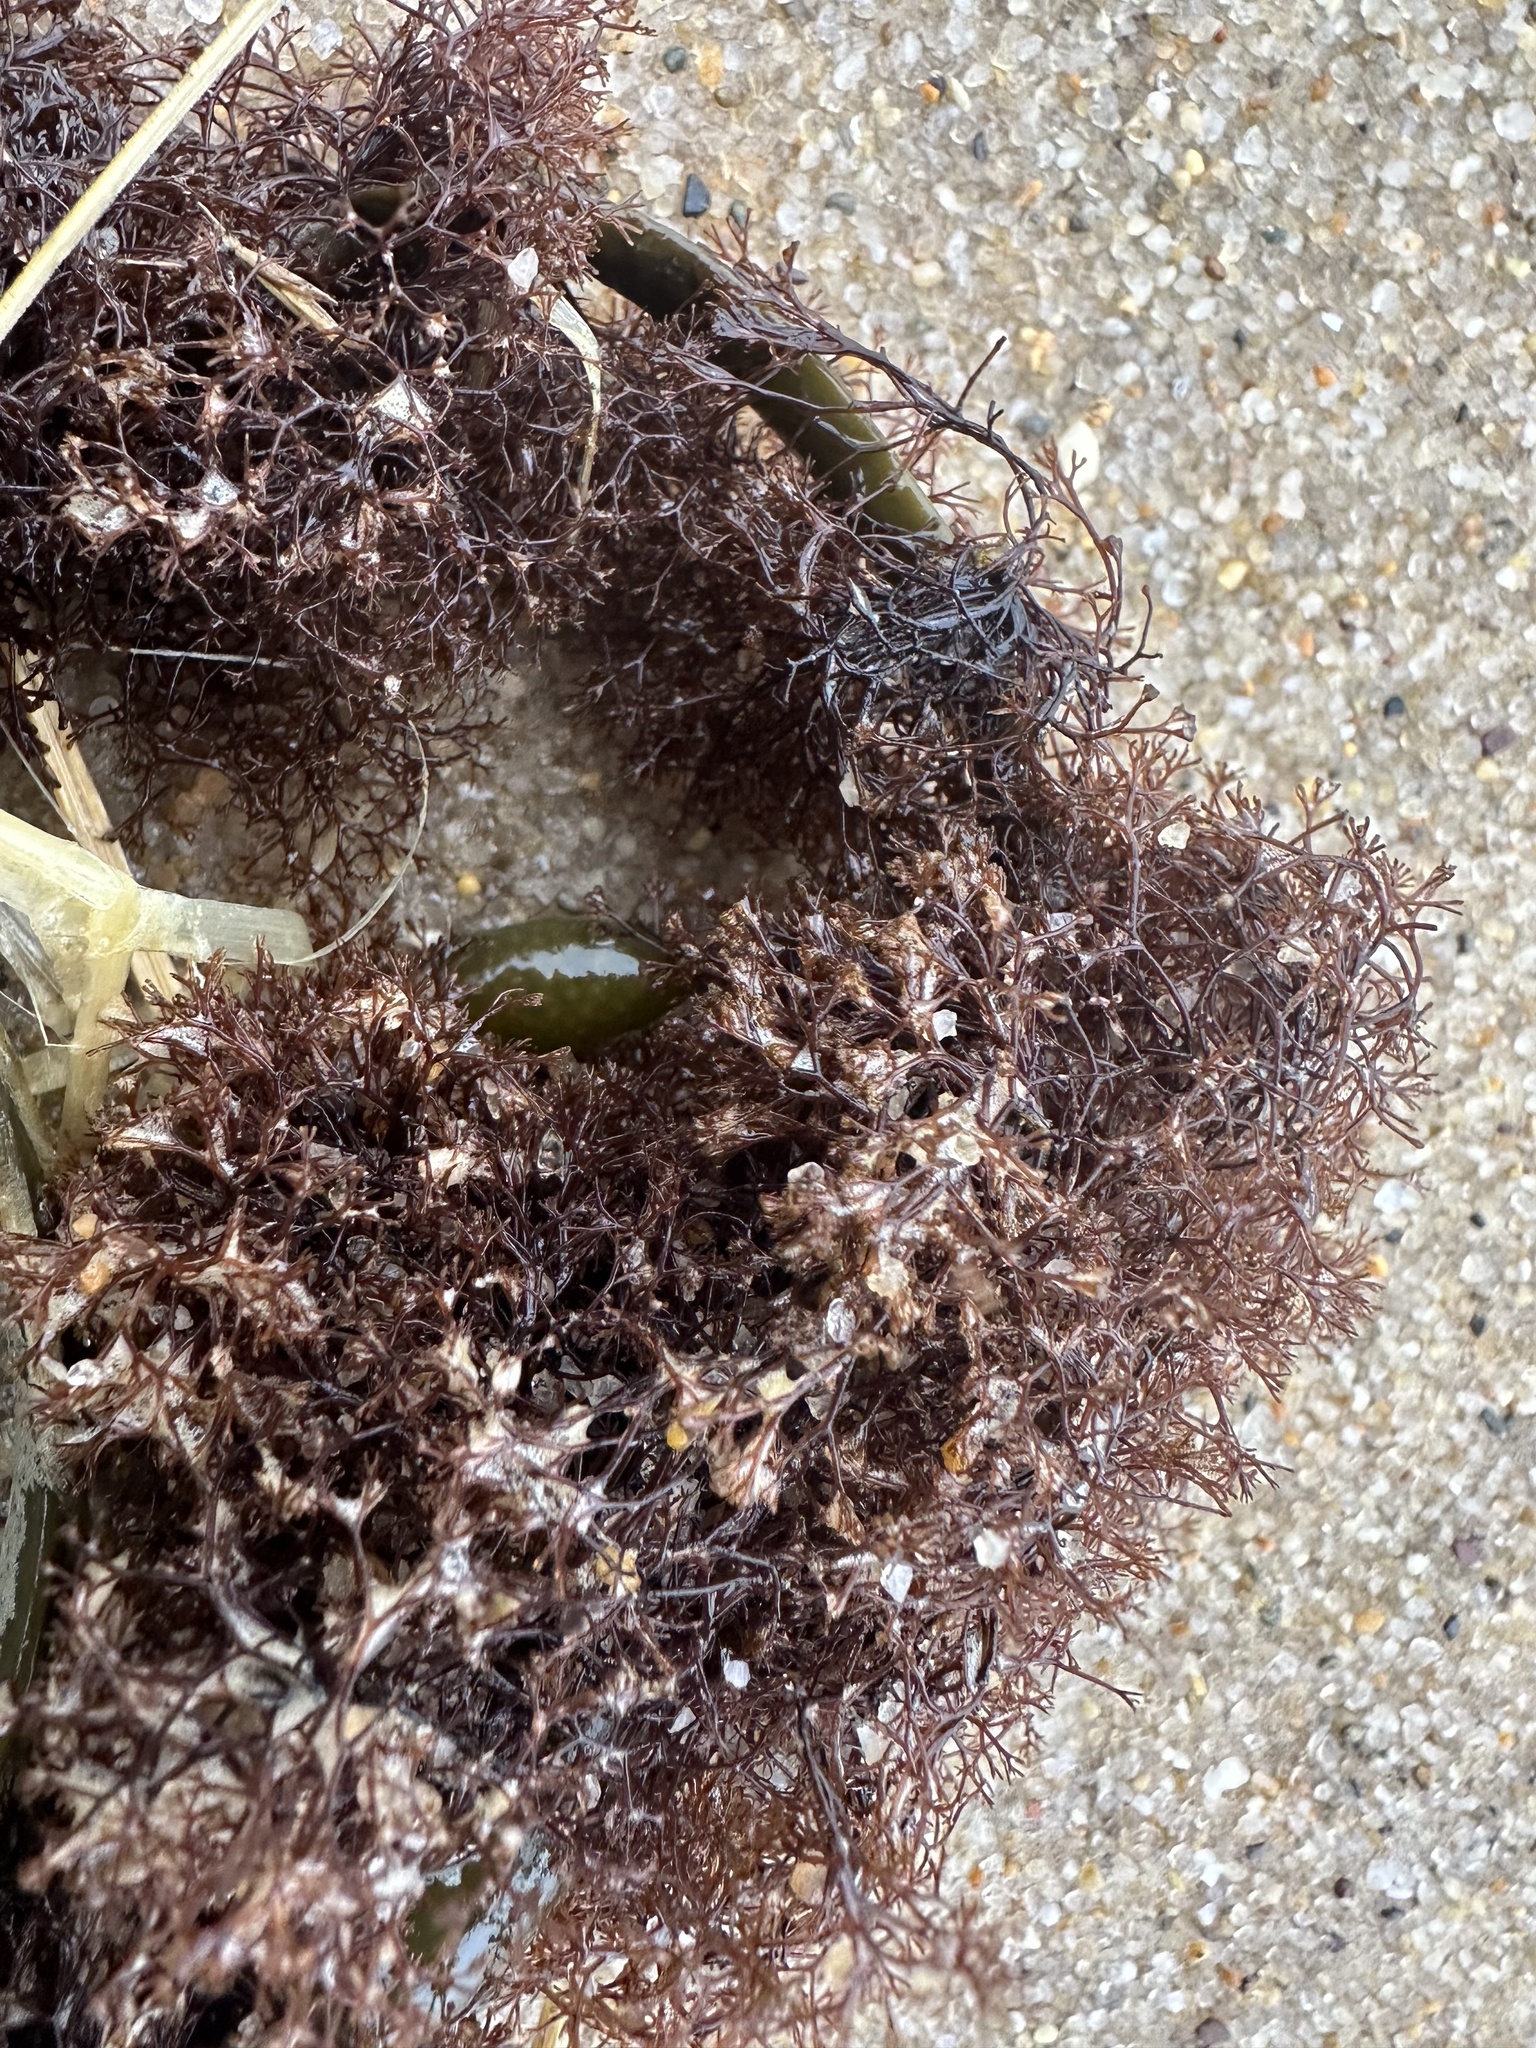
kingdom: Plantae
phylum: Rhodophyta
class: Florideophyceae
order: Ceramiales
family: Rhodomelaceae
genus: Vertebrata
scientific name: Vertebrata lanosa
